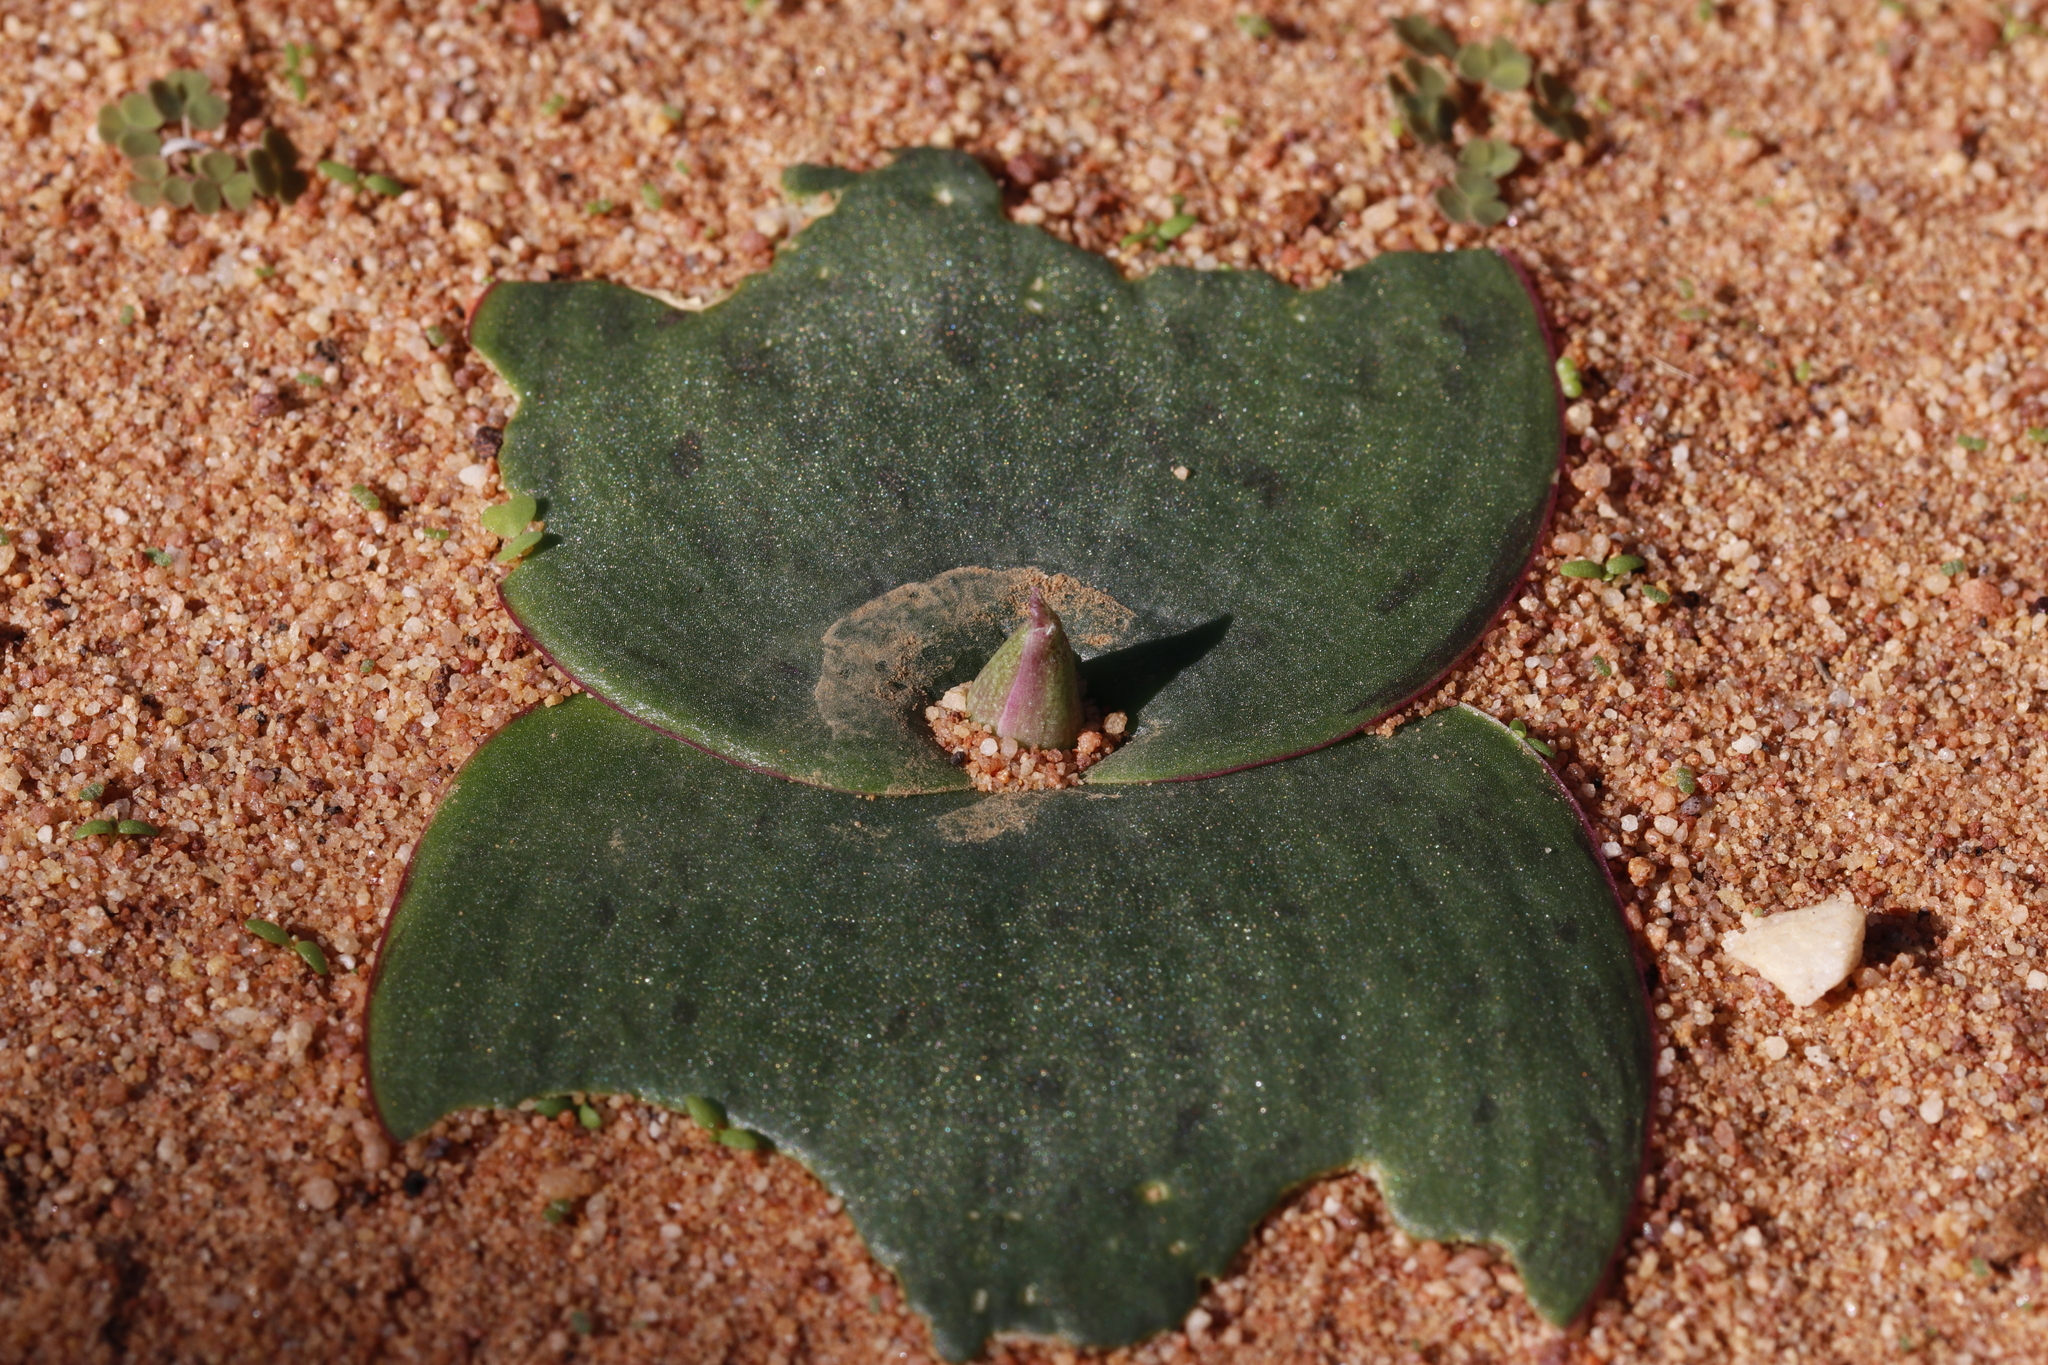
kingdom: Plantae
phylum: Tracheophyta
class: Liliopsida
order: Asparagales
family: Asparagaceae
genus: Massonia
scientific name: Massonia depressa
